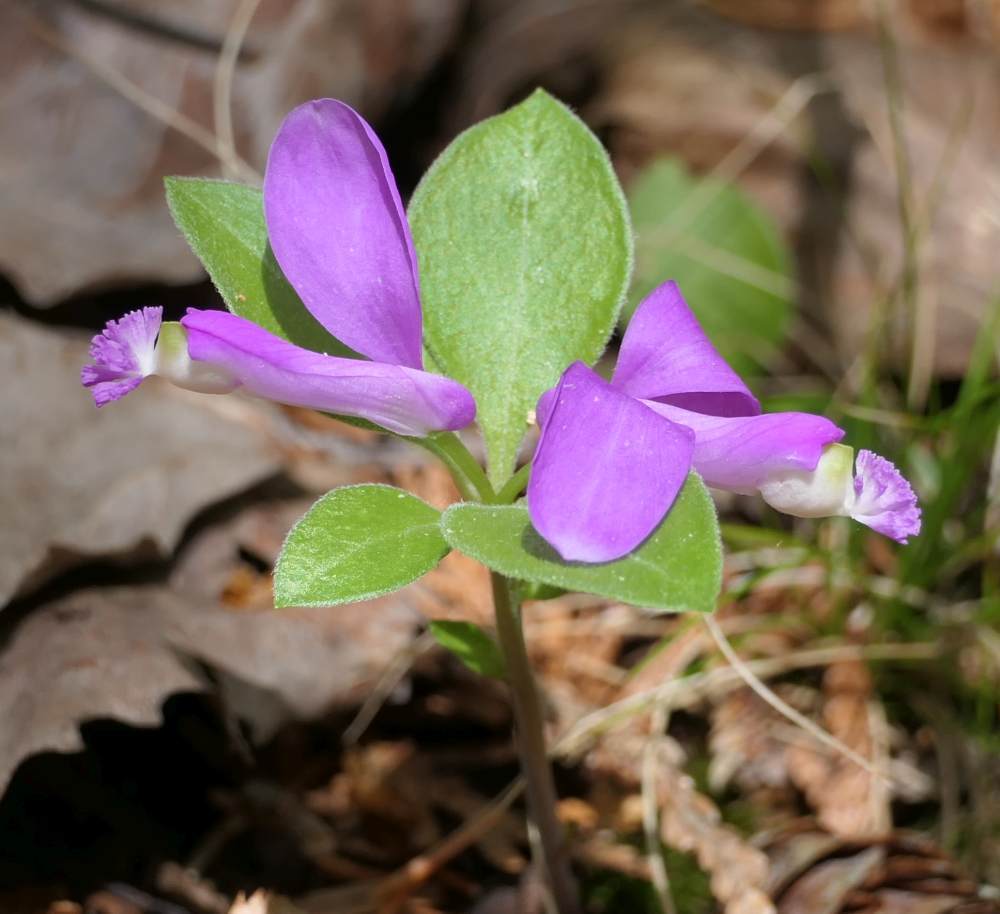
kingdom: Plantae
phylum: Tracheophyta
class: Magnoliopsida
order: Fabales
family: Polygalaceae
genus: Polygaloides
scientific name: Polygaloides paucifolia
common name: Bird-on-the-wing
